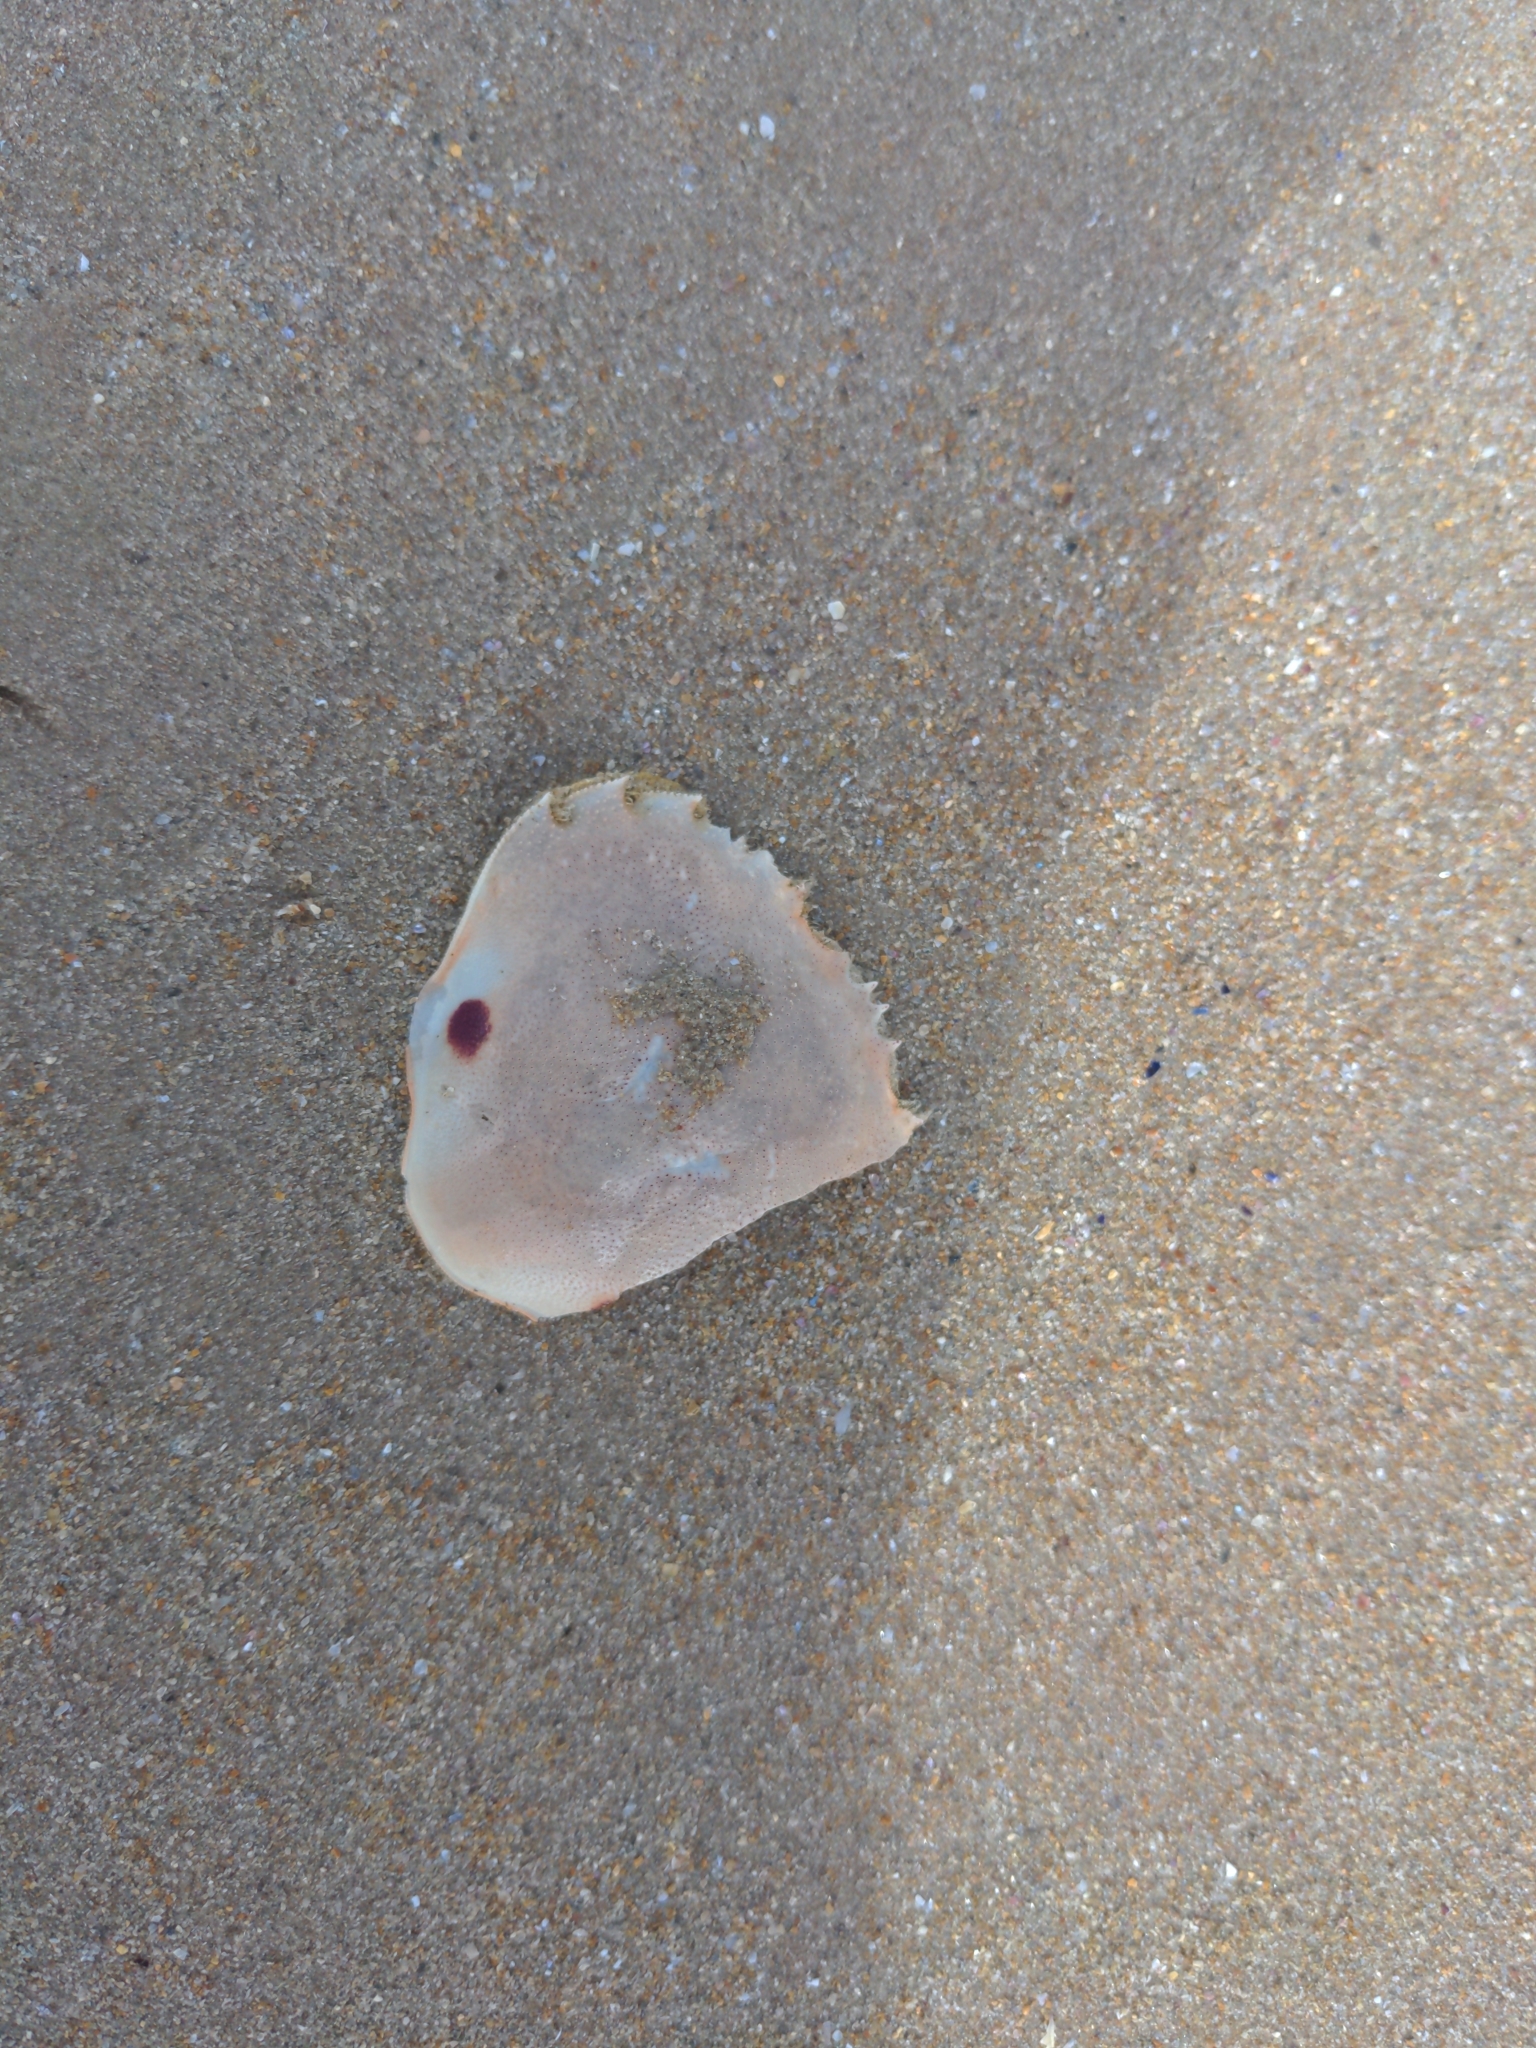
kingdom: Animalia
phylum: Arthropoda
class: Malacostraca
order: Decapoda
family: Ovalipidae
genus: Ovalipes
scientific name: Ovalipes australiensis
